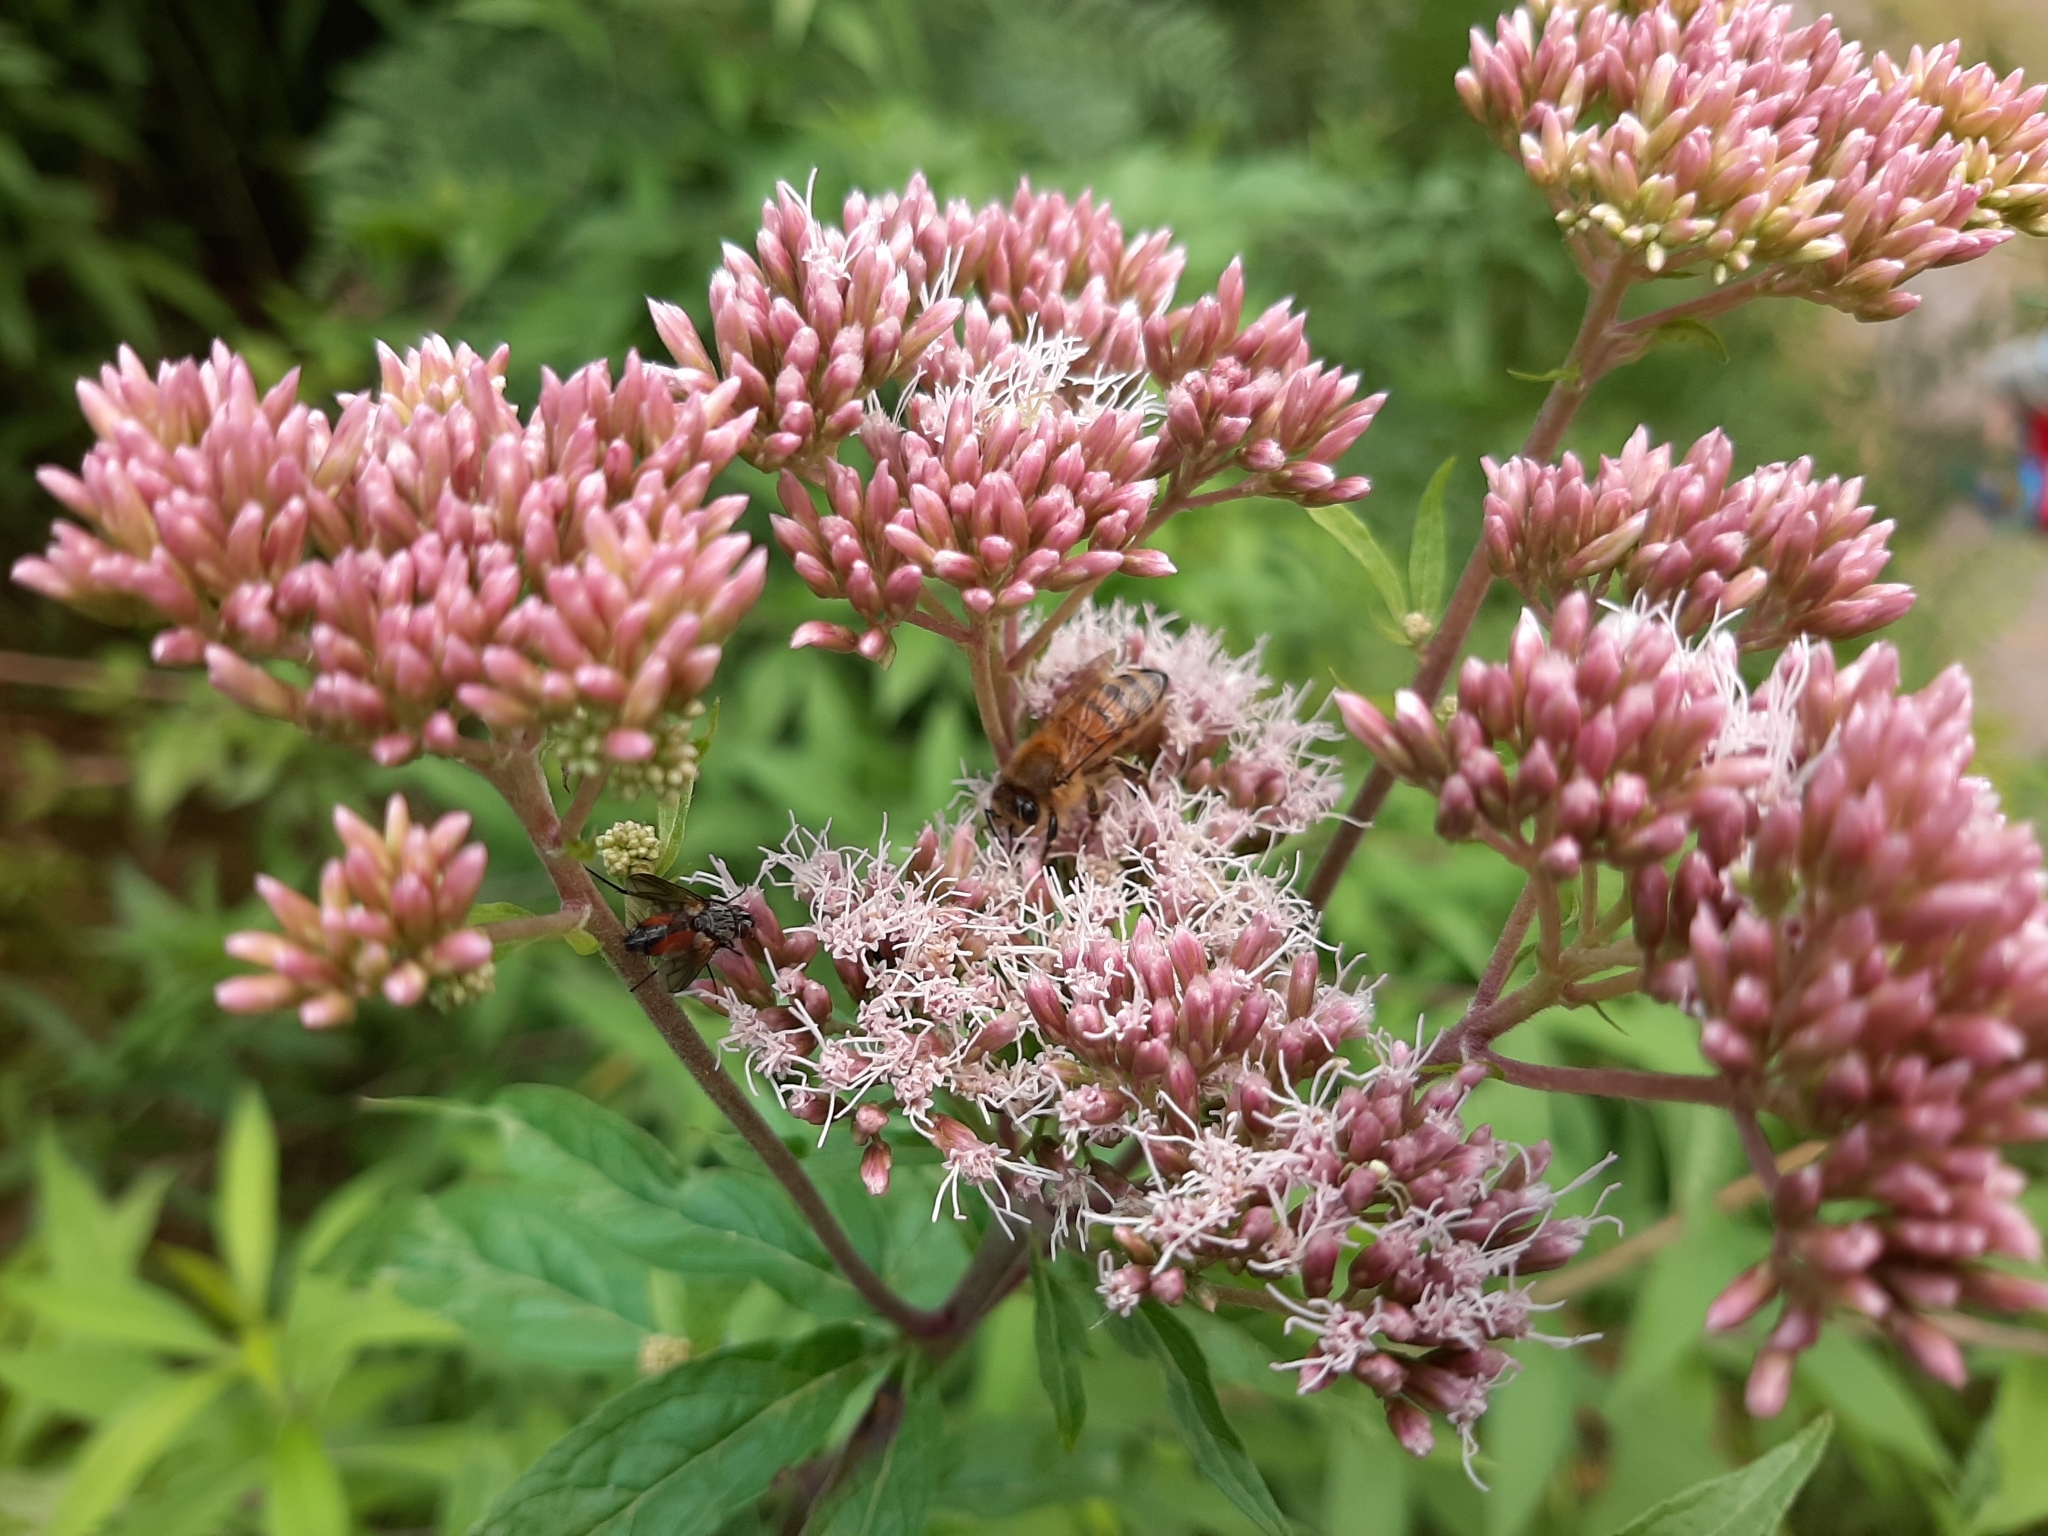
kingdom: Animalia
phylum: Arthropoda
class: Insecta
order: Hymenoptera
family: Apidae
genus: Apis
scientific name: Apis mellifera
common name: Honey bee
